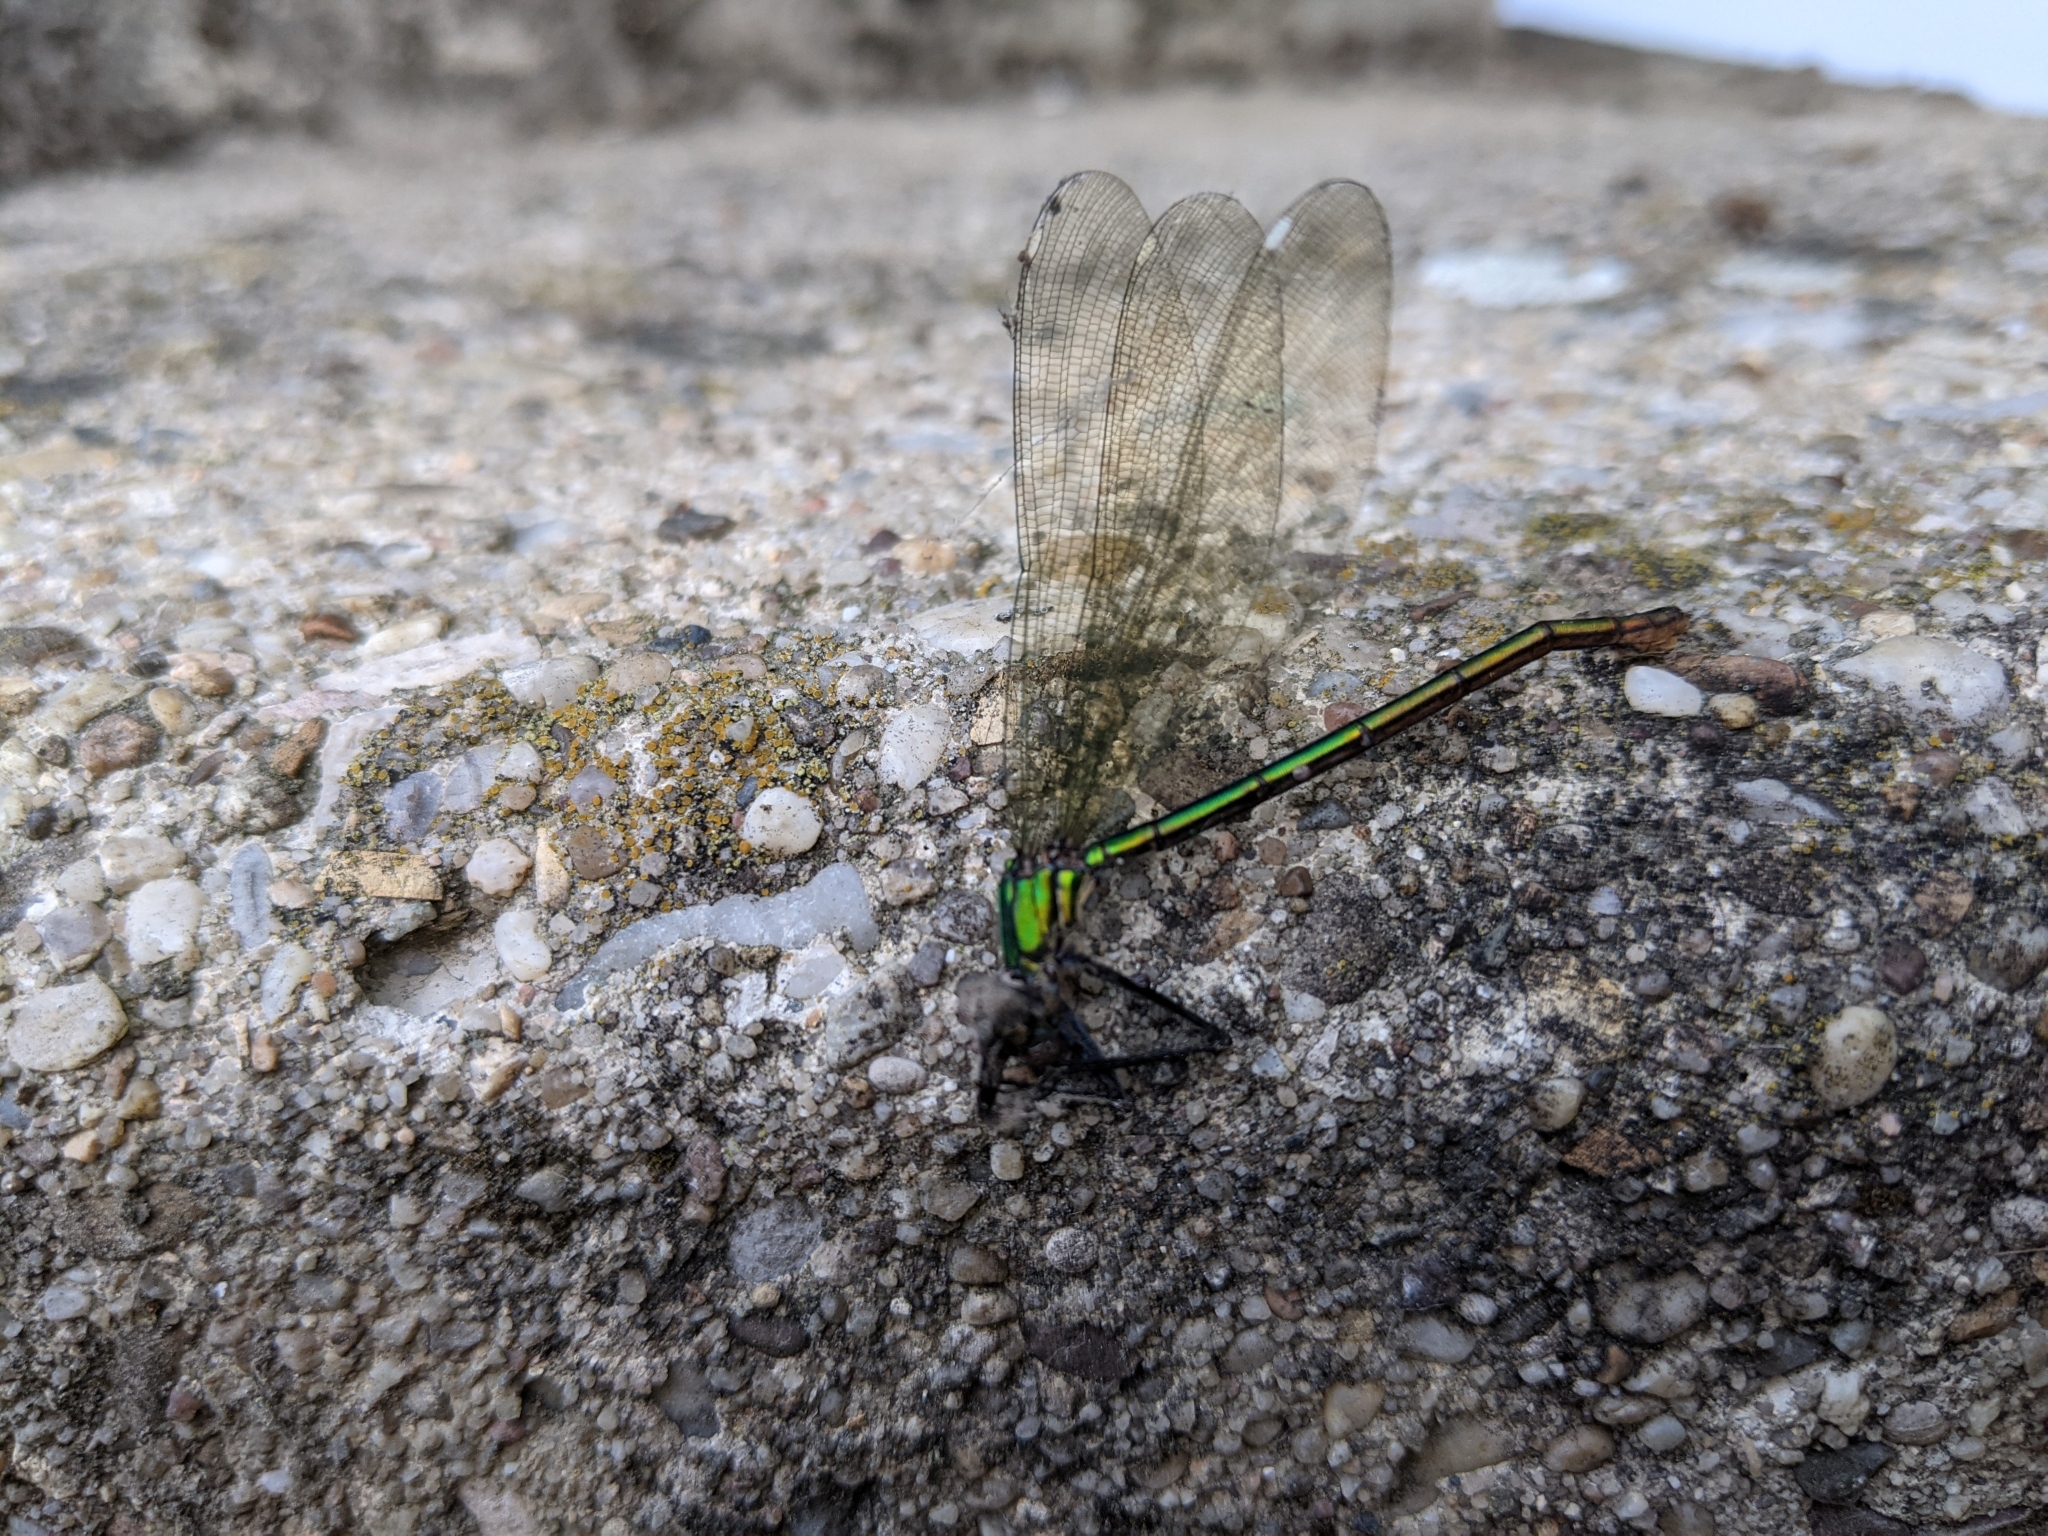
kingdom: Animalia
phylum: Arthropoda
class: Insecta
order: Odonata
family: Calopterygidae
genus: Calopteryx
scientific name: Calopteryx splendens
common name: Banded demoiselle
